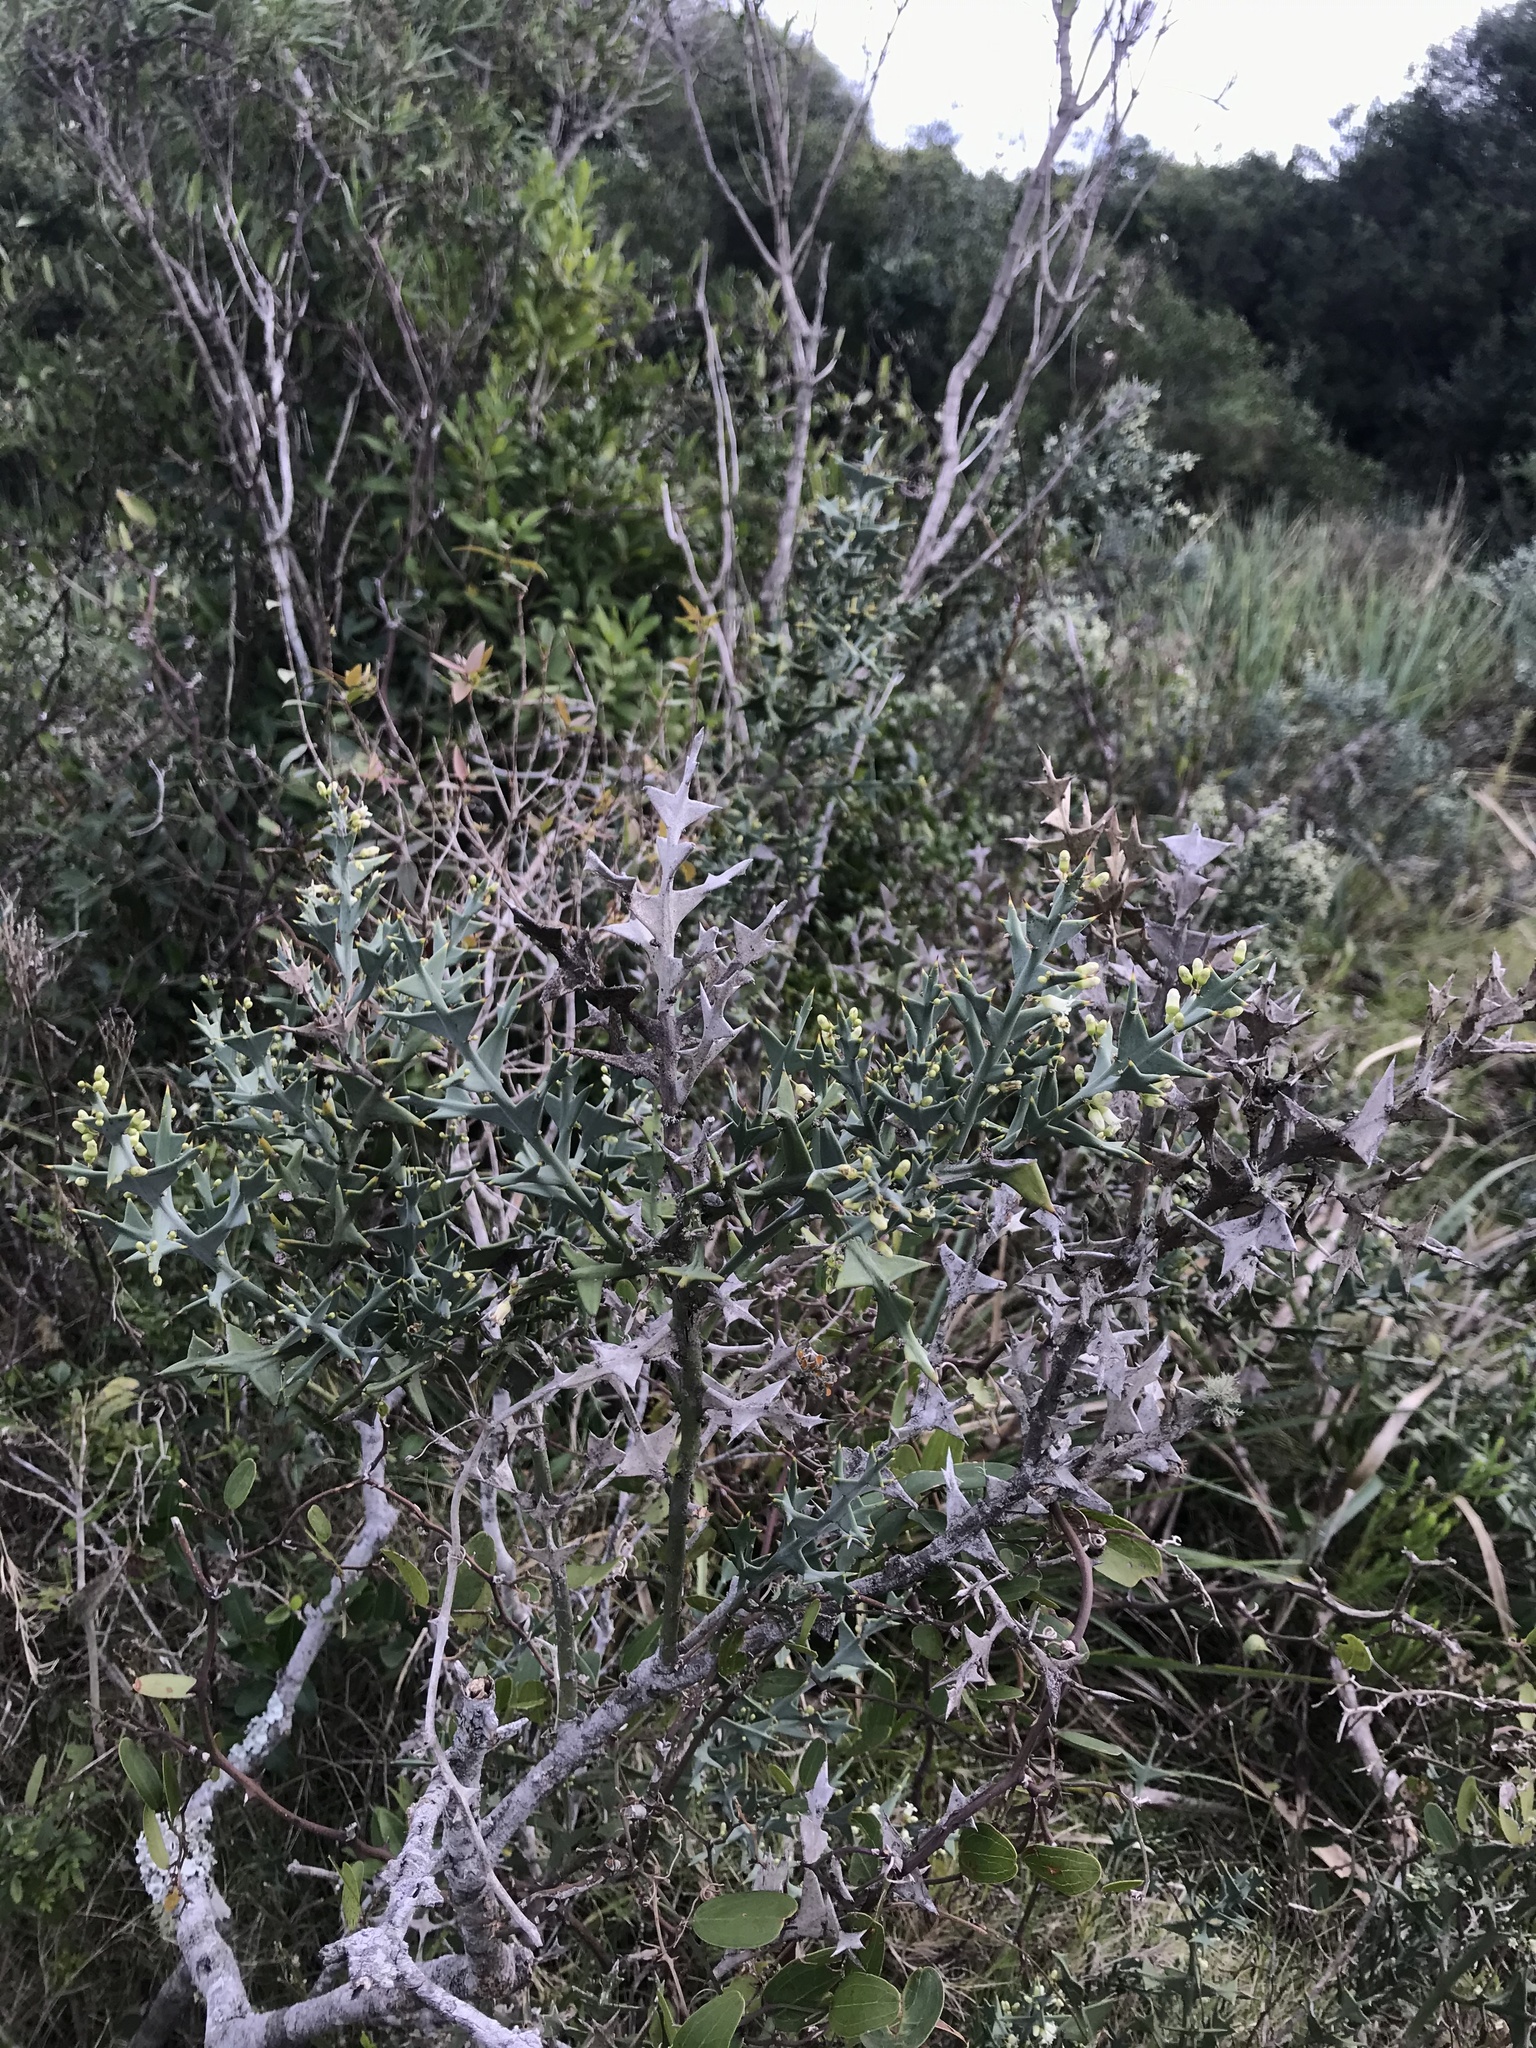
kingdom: Plantae
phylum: Tracheophyta
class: Magnoliopsida
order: Rosales
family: Rhamnaceae
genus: Colletia
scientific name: Colletia paradoxa
